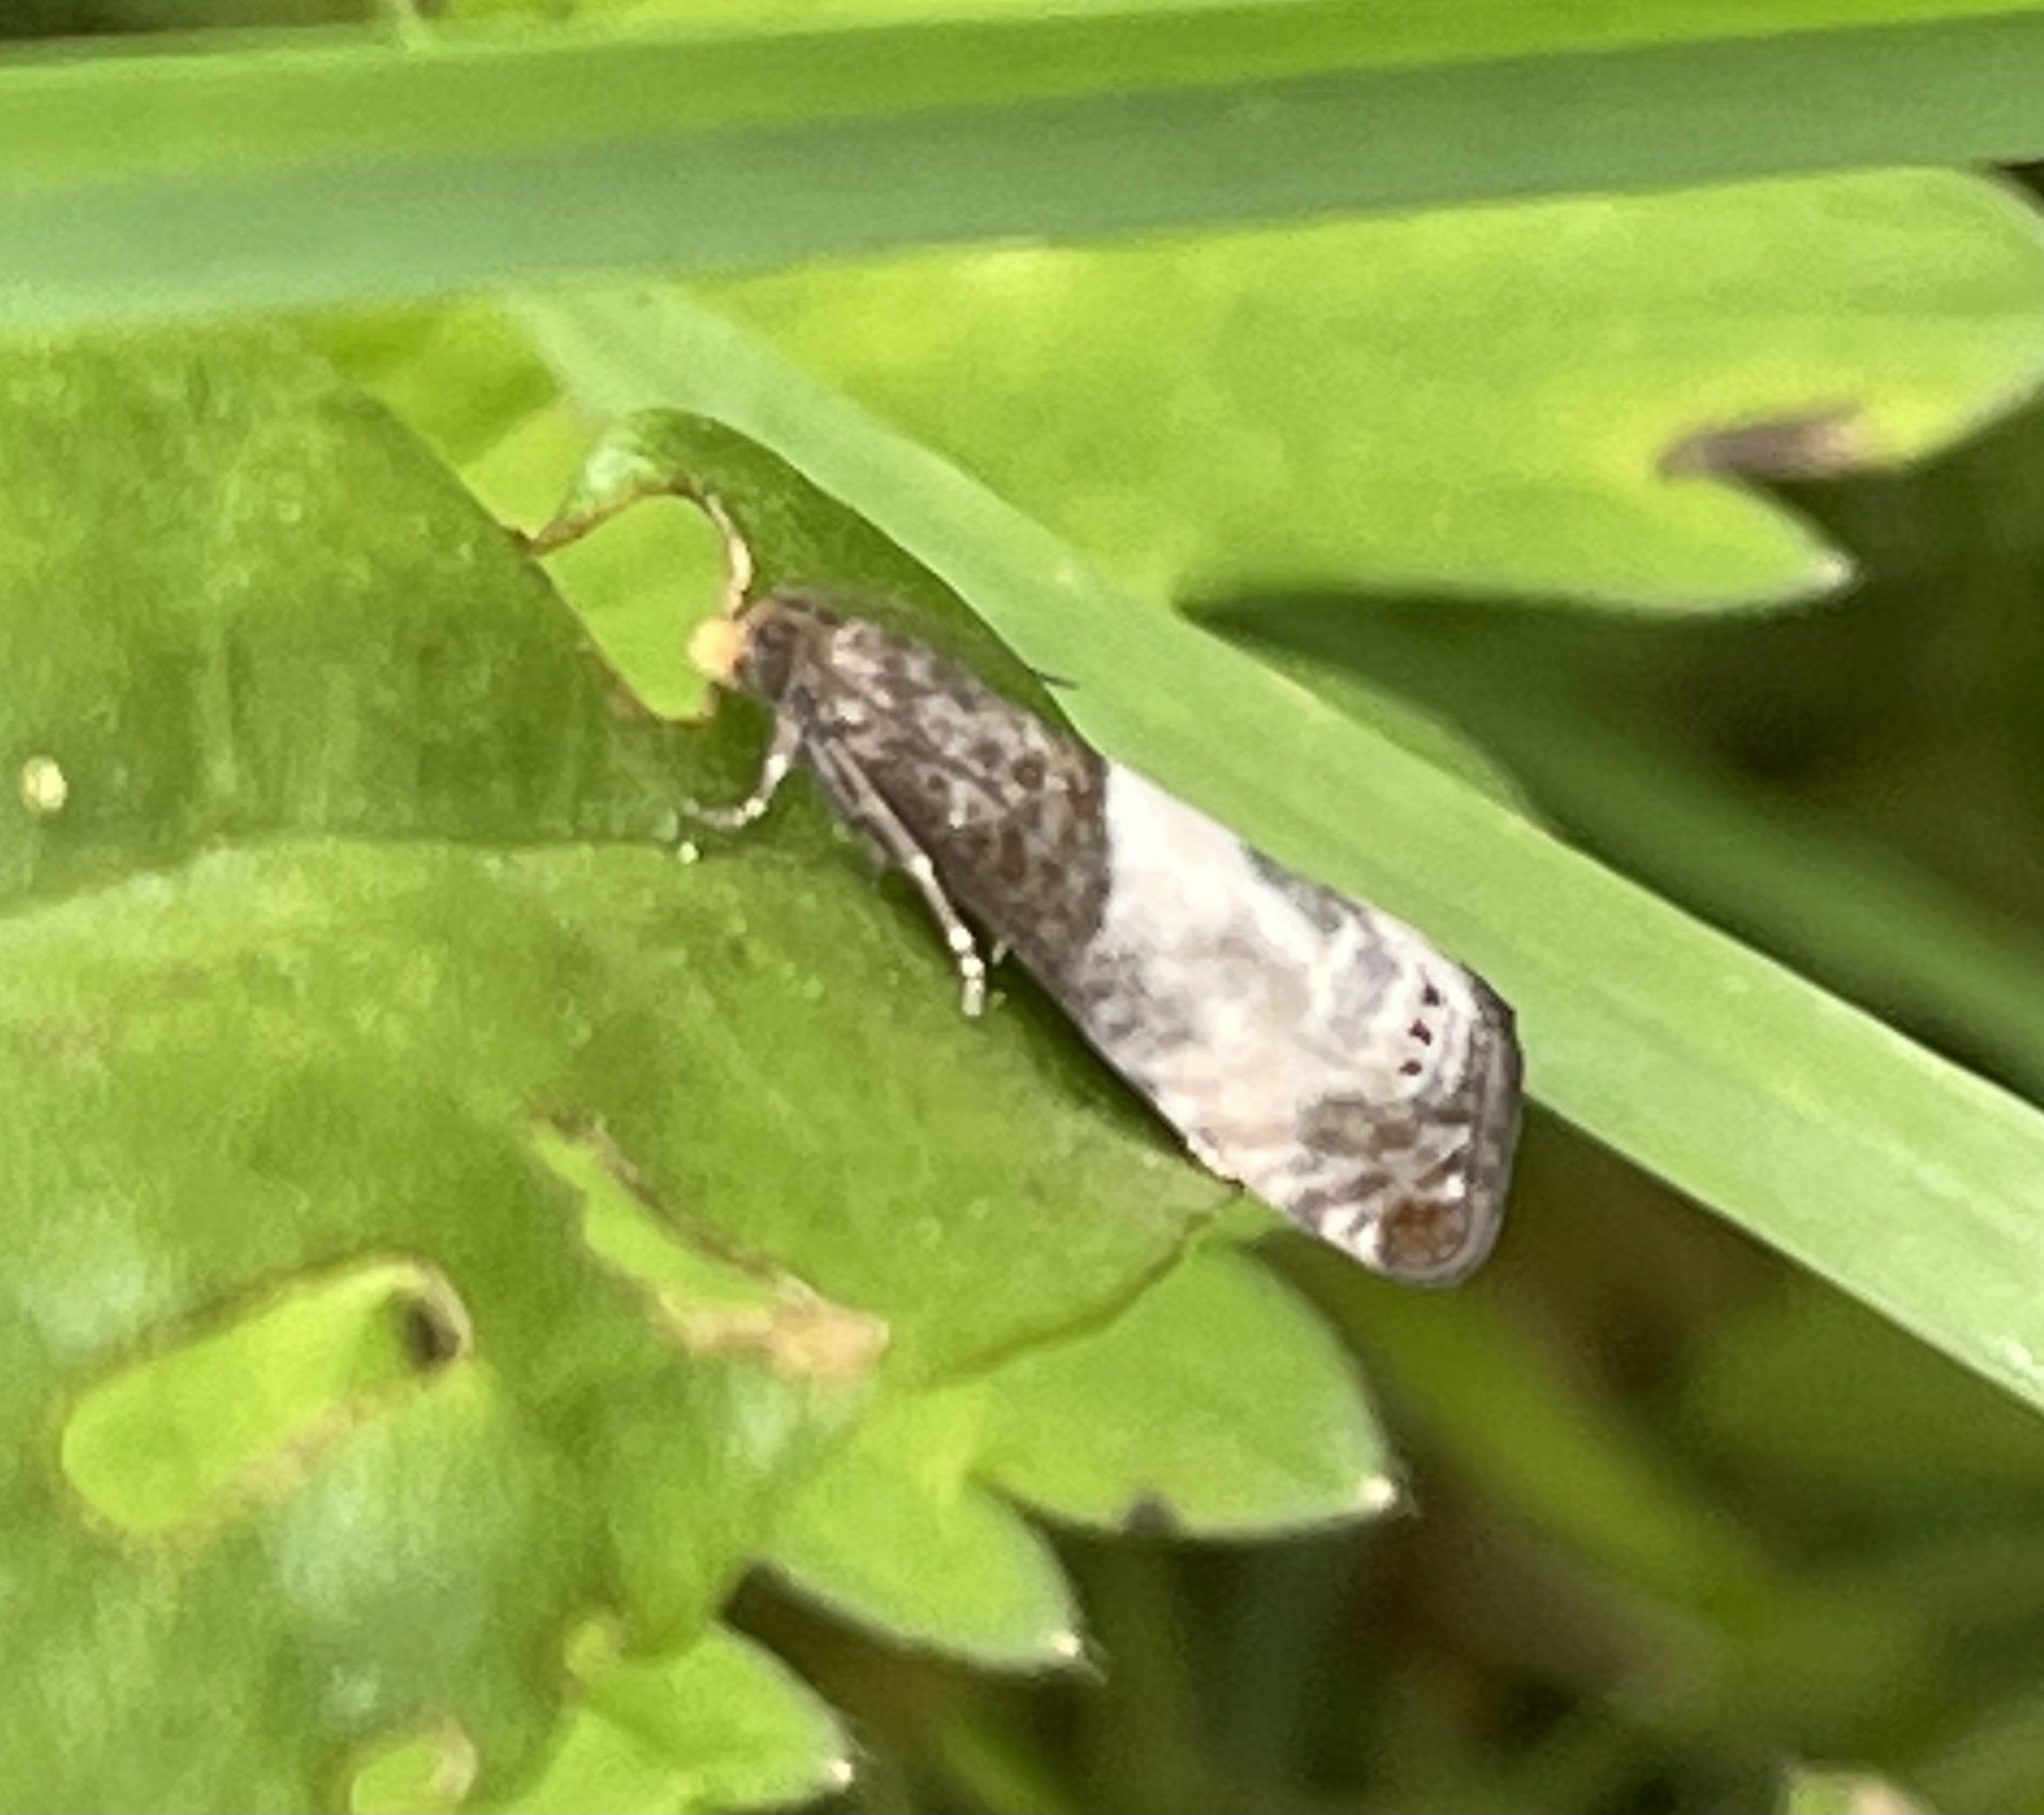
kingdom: Animalia
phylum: Arthropoda
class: Insecta
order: Lepidoptera
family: Tortricidae
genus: Notocelia
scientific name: Notocelia cynosbatella
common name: Yellow-faced bell moth
